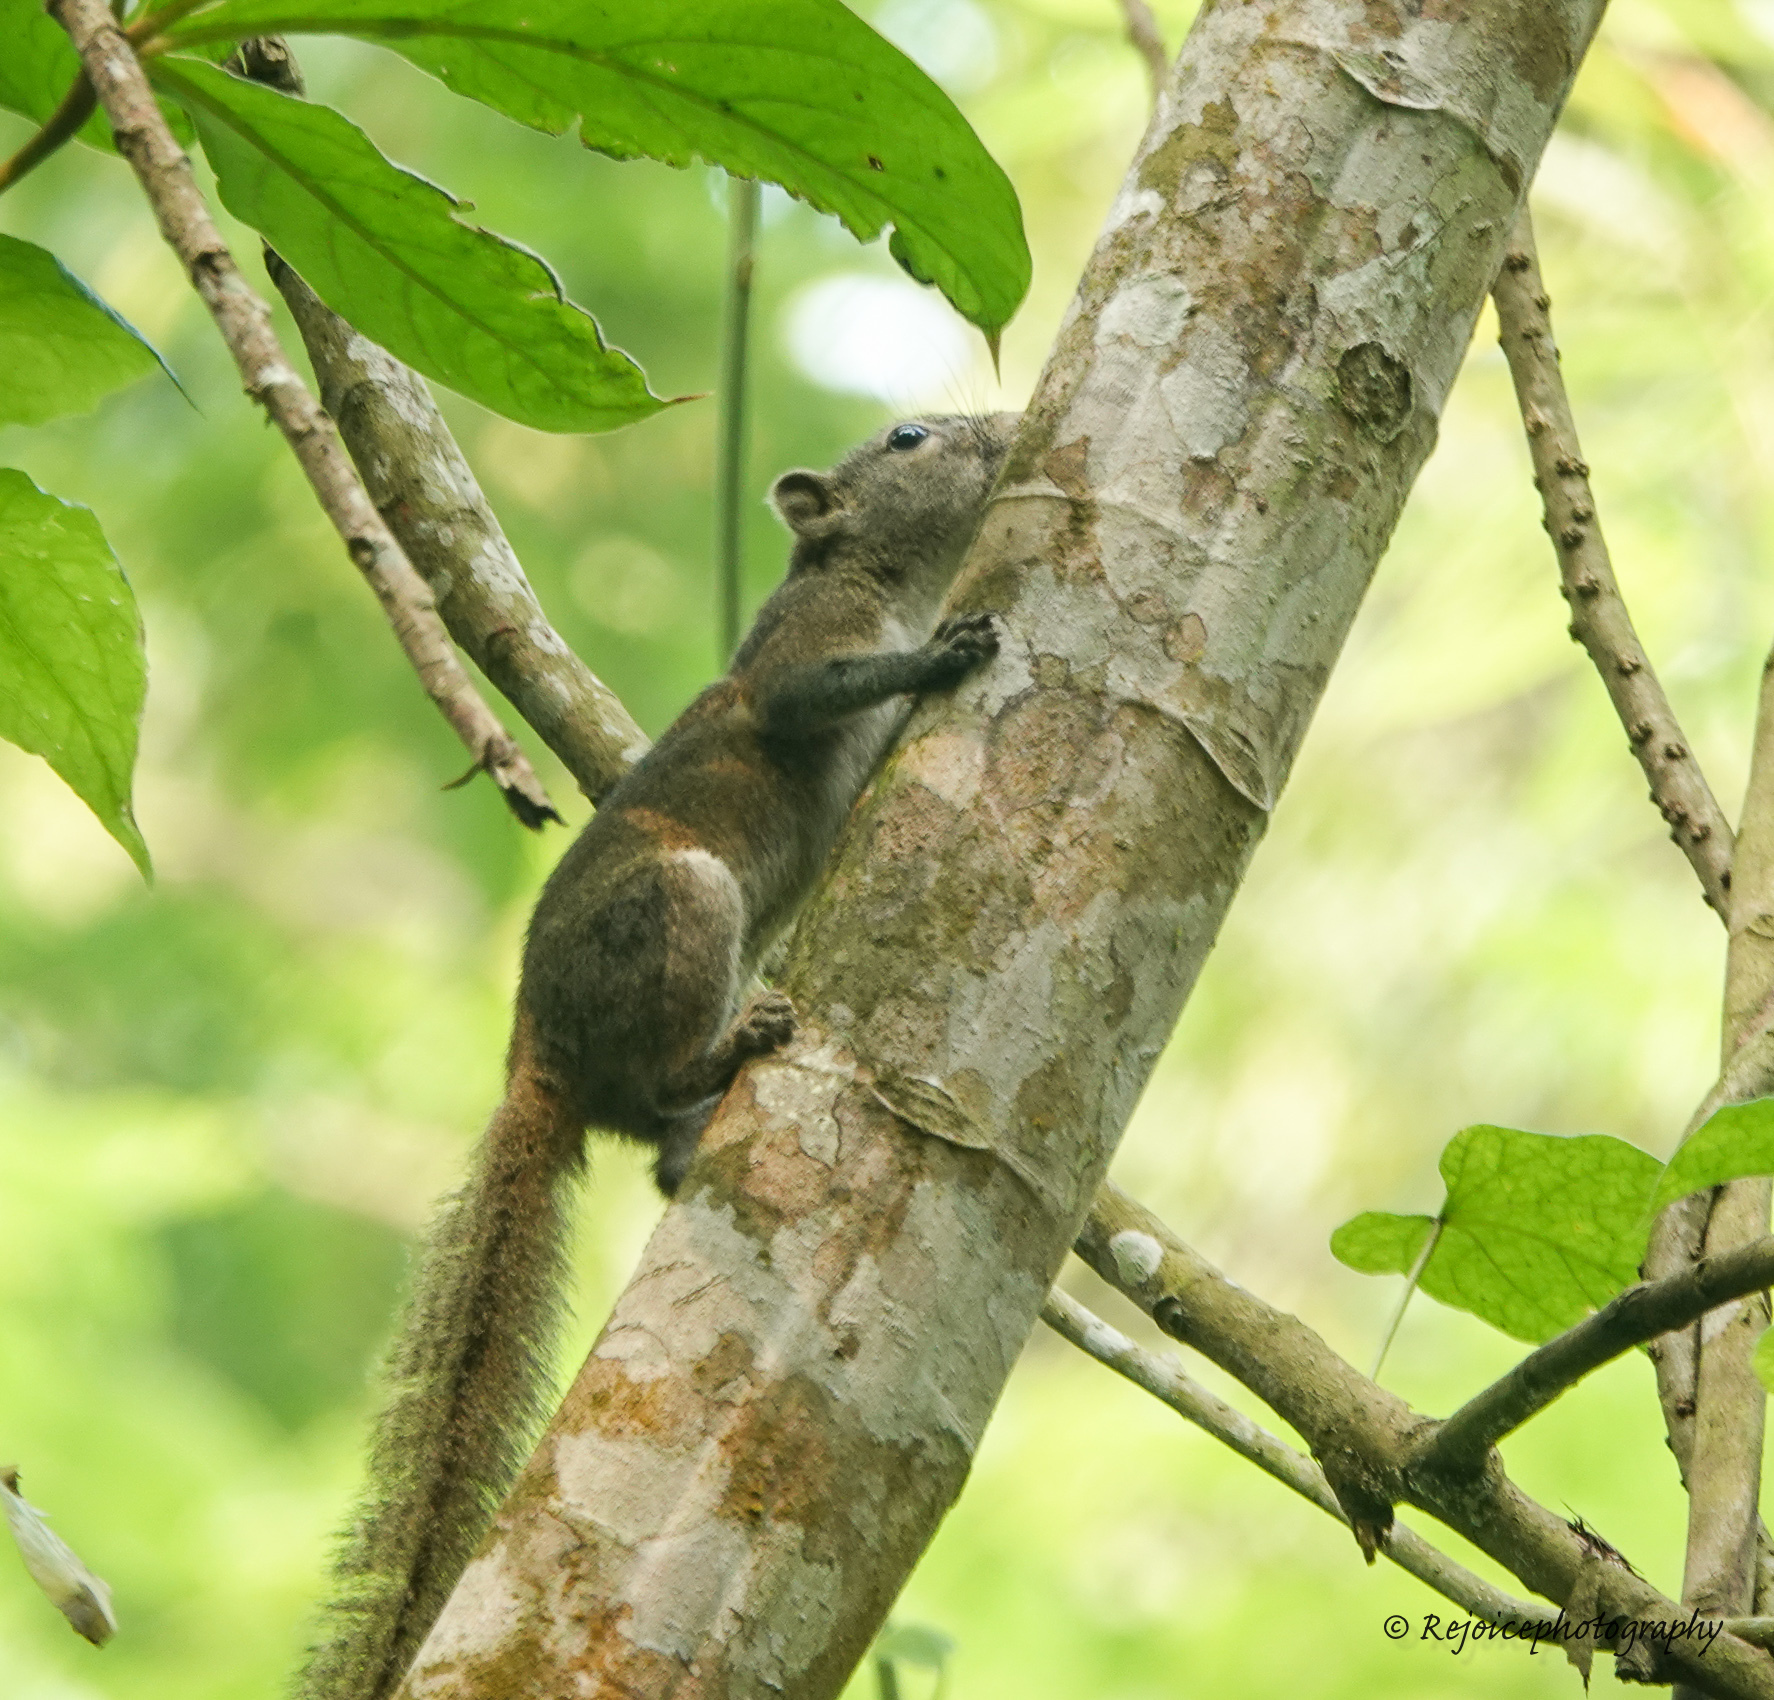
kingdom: Animalia
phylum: Chordata
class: Mammalia
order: Rodentia
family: Sciuridae
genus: Callosciurus
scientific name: Callosciurus pygerythrus
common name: Irrawaddy squirrel
